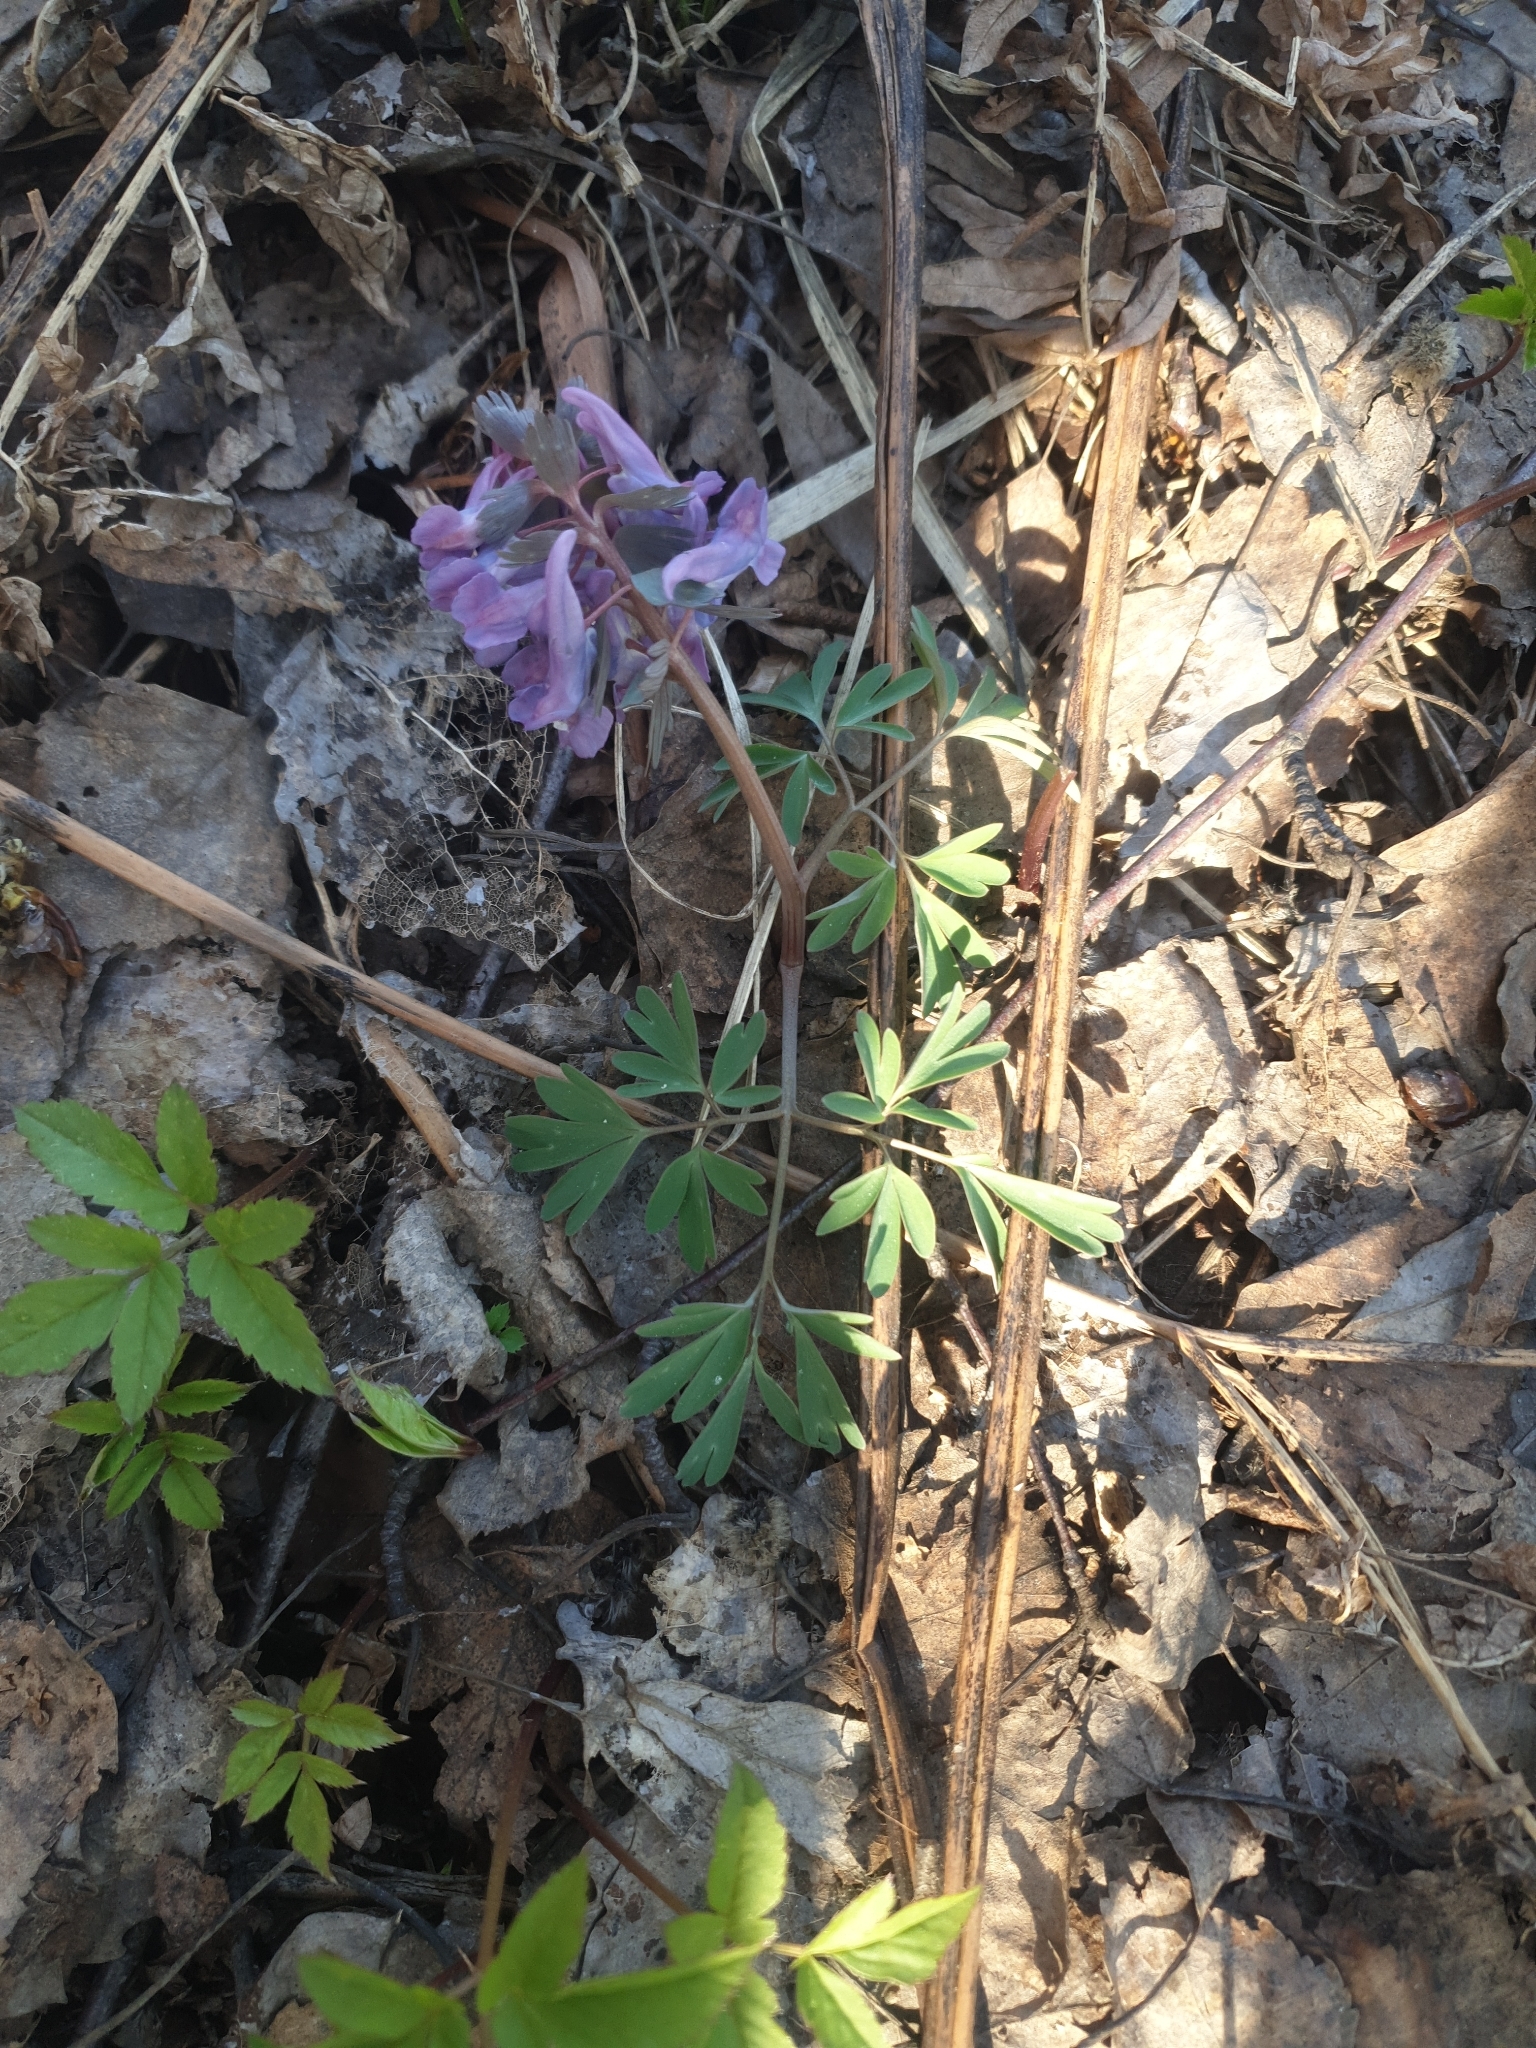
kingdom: Plantae
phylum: Tracheophyta
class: Magnoliopsida
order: Ranunculales
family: Papaveraceae
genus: Corydalis
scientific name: Corydalis solida
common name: Bird-in-a-bush
